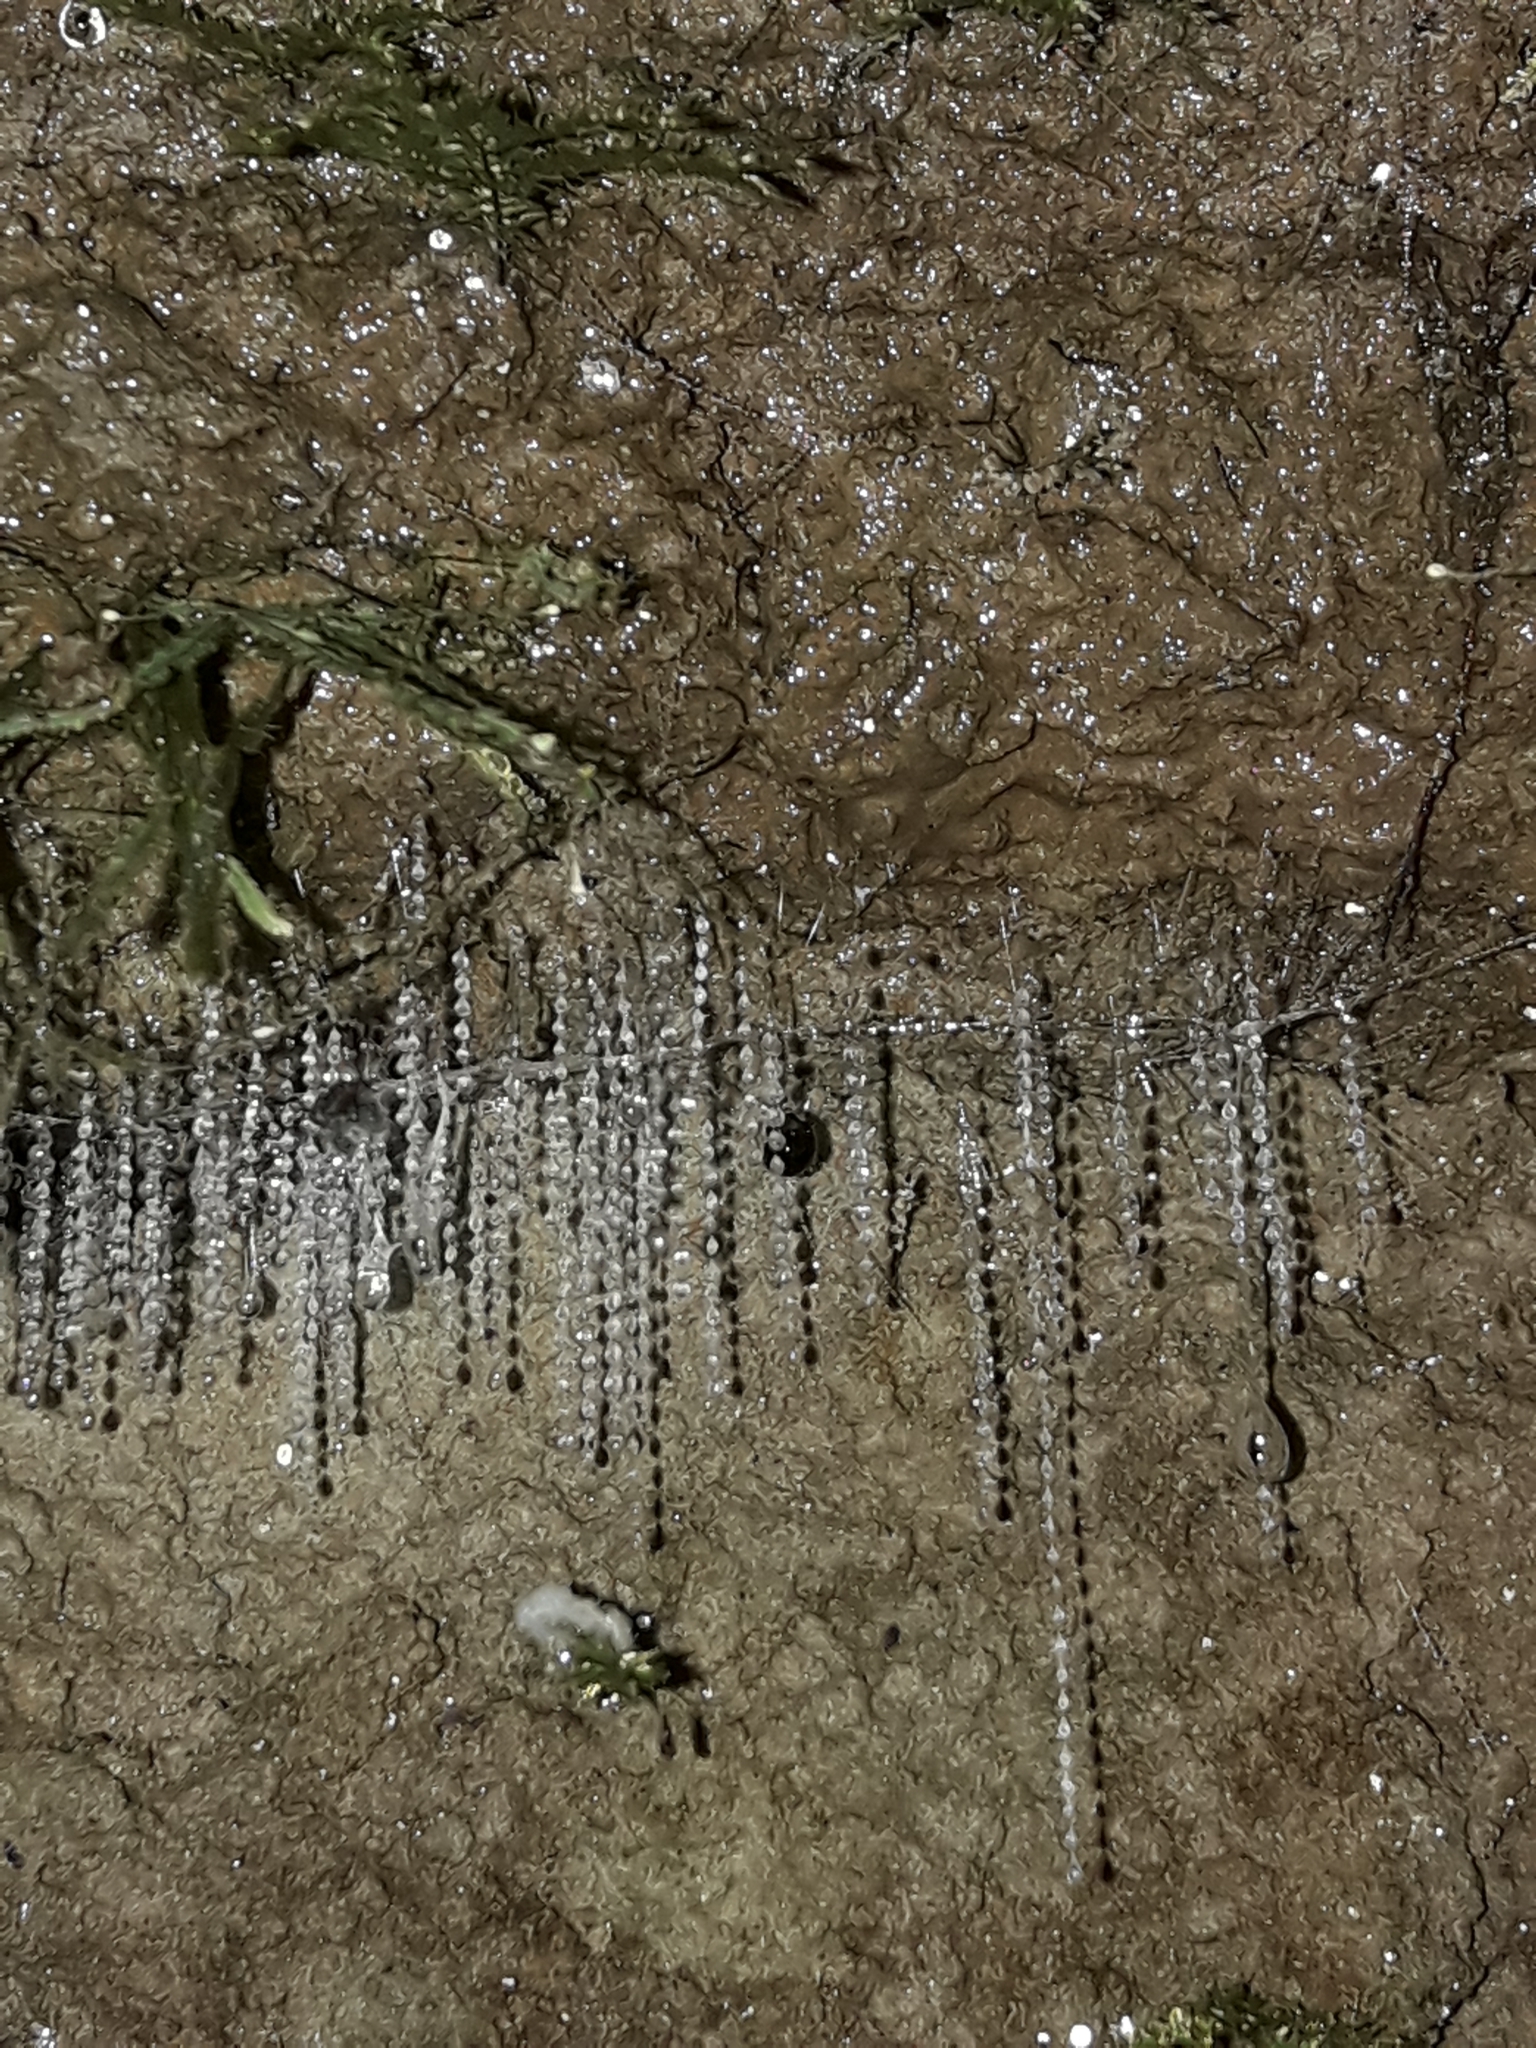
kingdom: Animalia
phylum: Arthropoda
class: Insecta
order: Diptera
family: Keroplatidae
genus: Arachnocampa
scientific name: Arachnocampa luminosa
